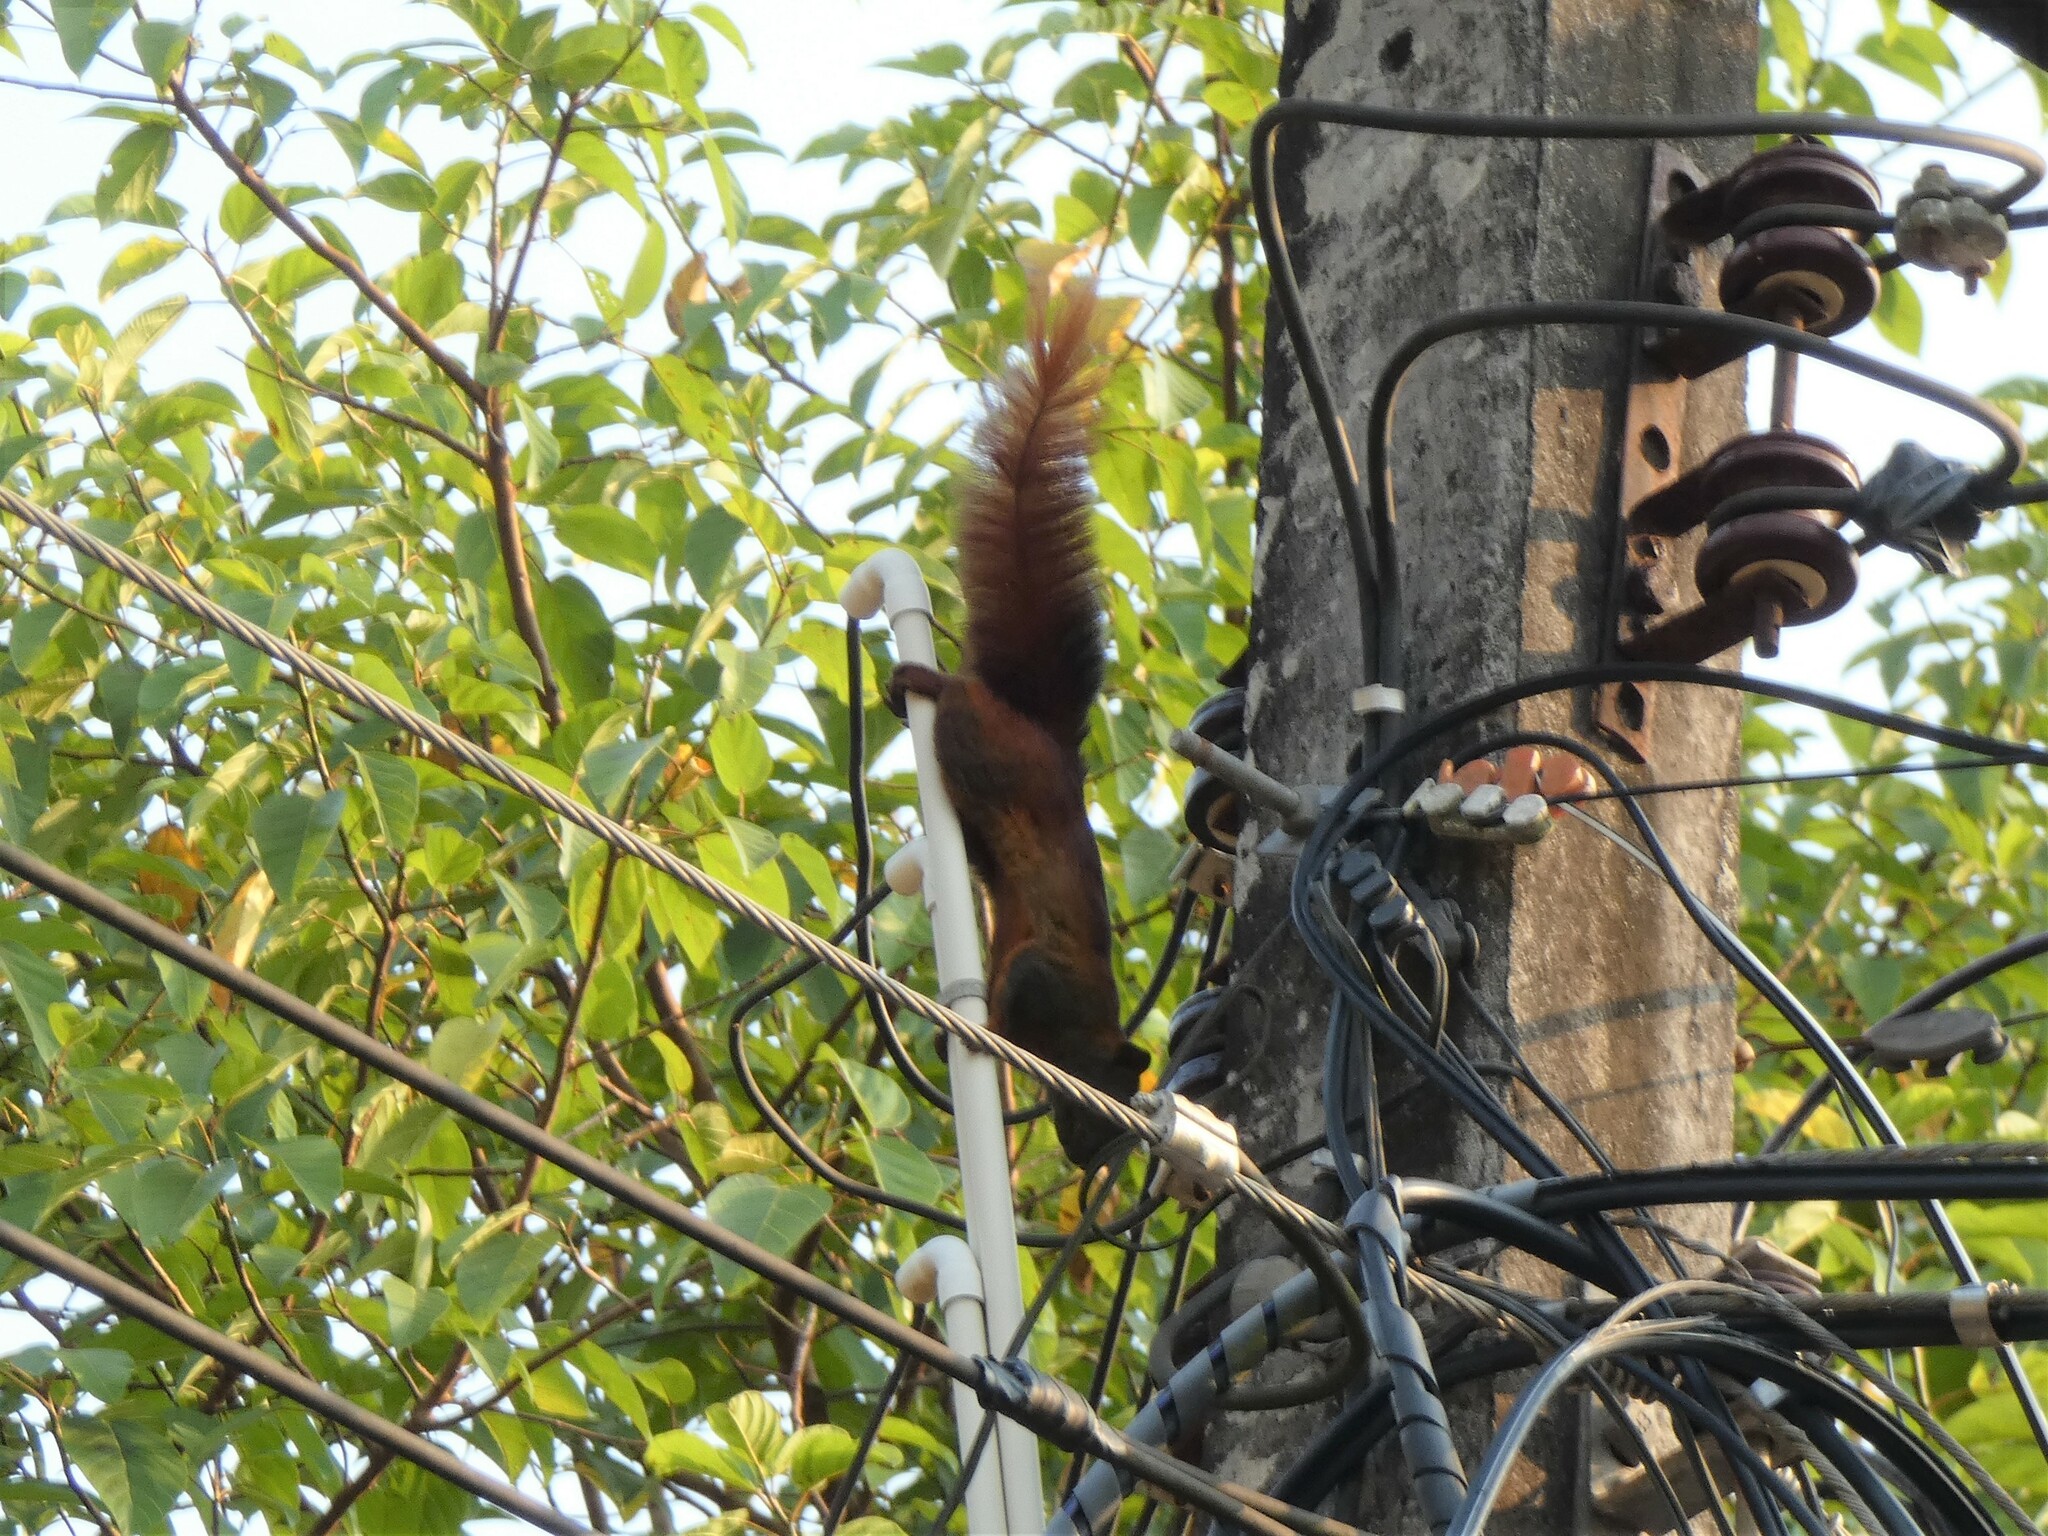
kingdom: Animalia
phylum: Chordata
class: Mammalia
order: Rodentia
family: Sciuridae
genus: Callosciurus
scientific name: Callosciurus erythraeus
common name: Pallas's squirrel
